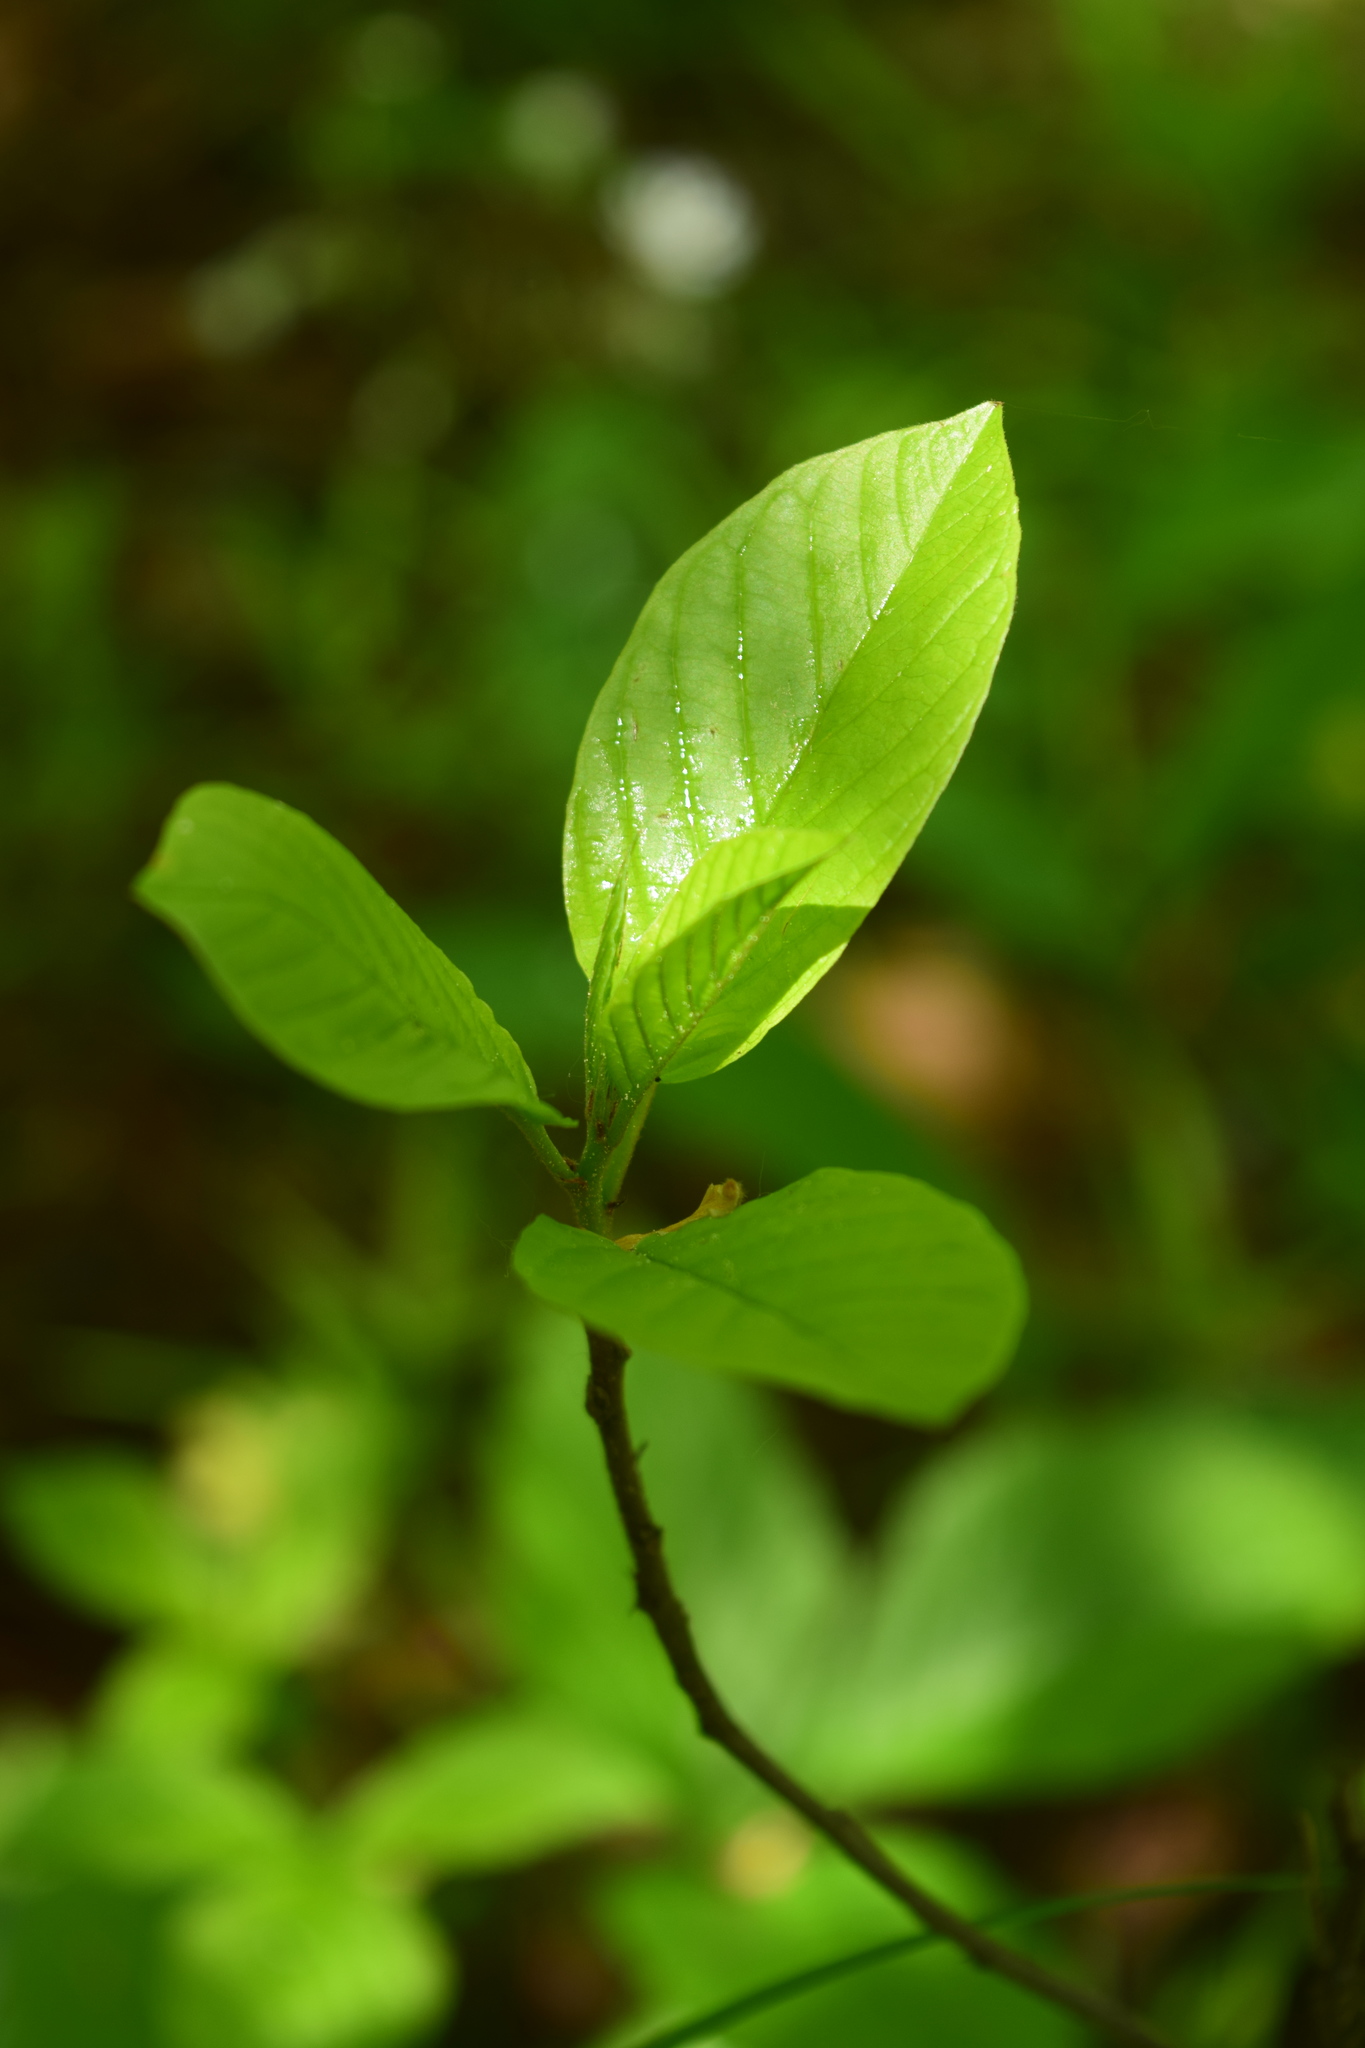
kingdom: Plantae
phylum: Tracheophyta
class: Magnoliopsida
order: Rosales
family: Rhamnaceae
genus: Frangula
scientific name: Frangula alnus
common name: Alder buckthorn
